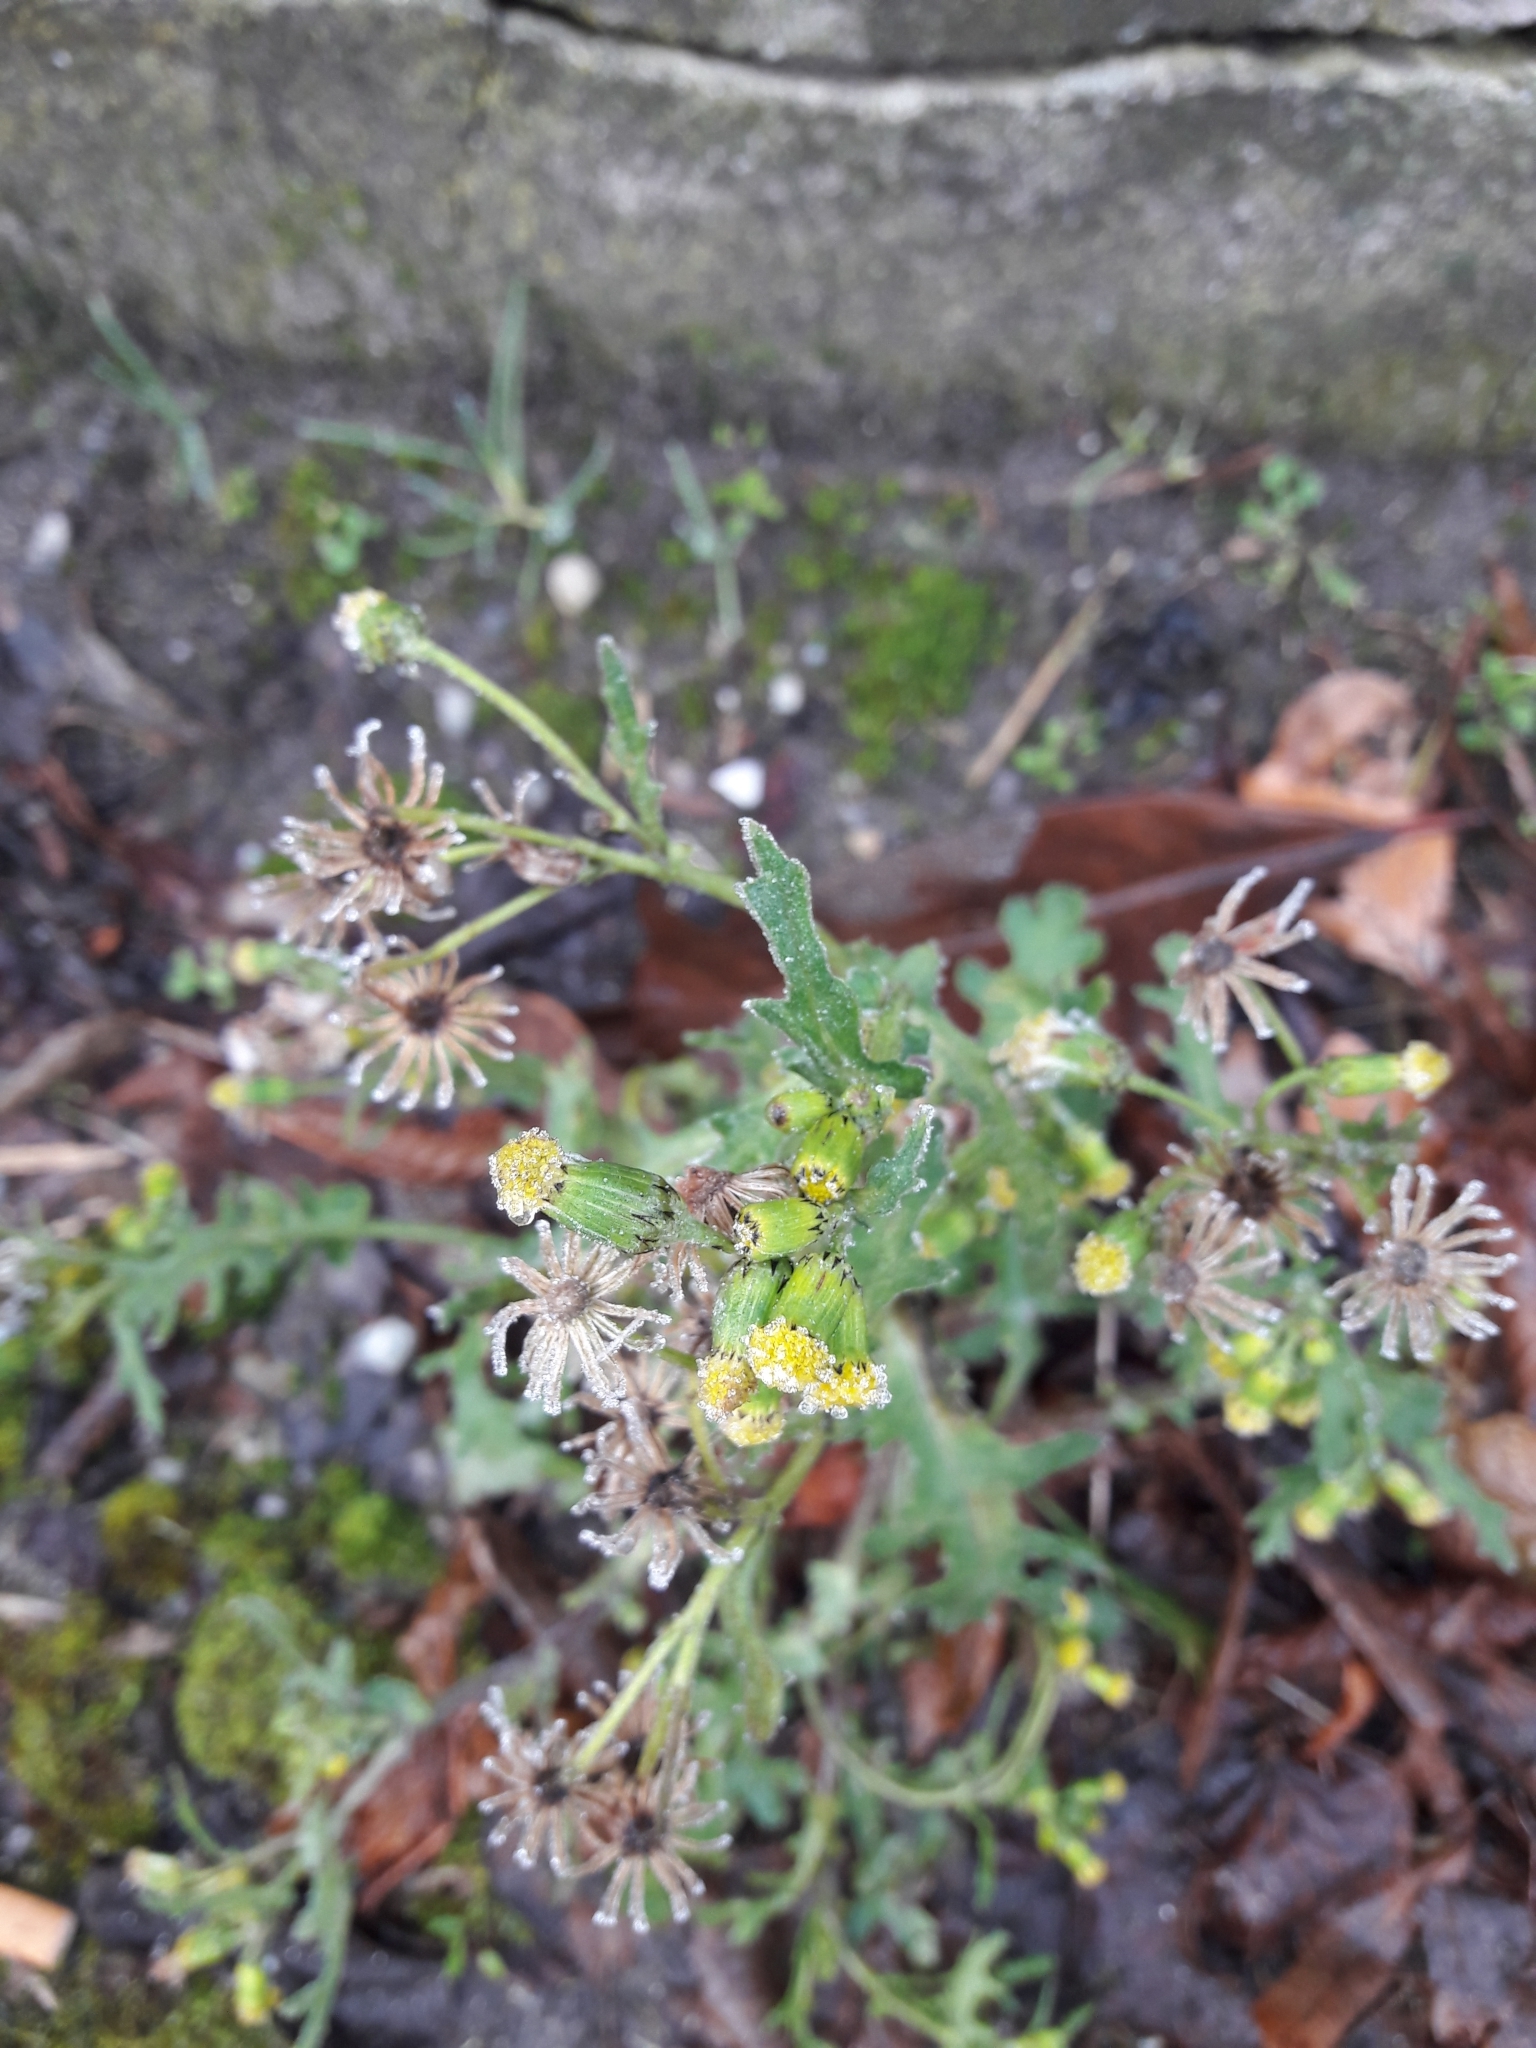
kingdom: Plantae
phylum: Tracheophyta
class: Magnoliopsida
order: Asterales
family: Asteraceae
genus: Senecio
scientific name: Senecio vulgaris
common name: Old-man-in-the-spring
